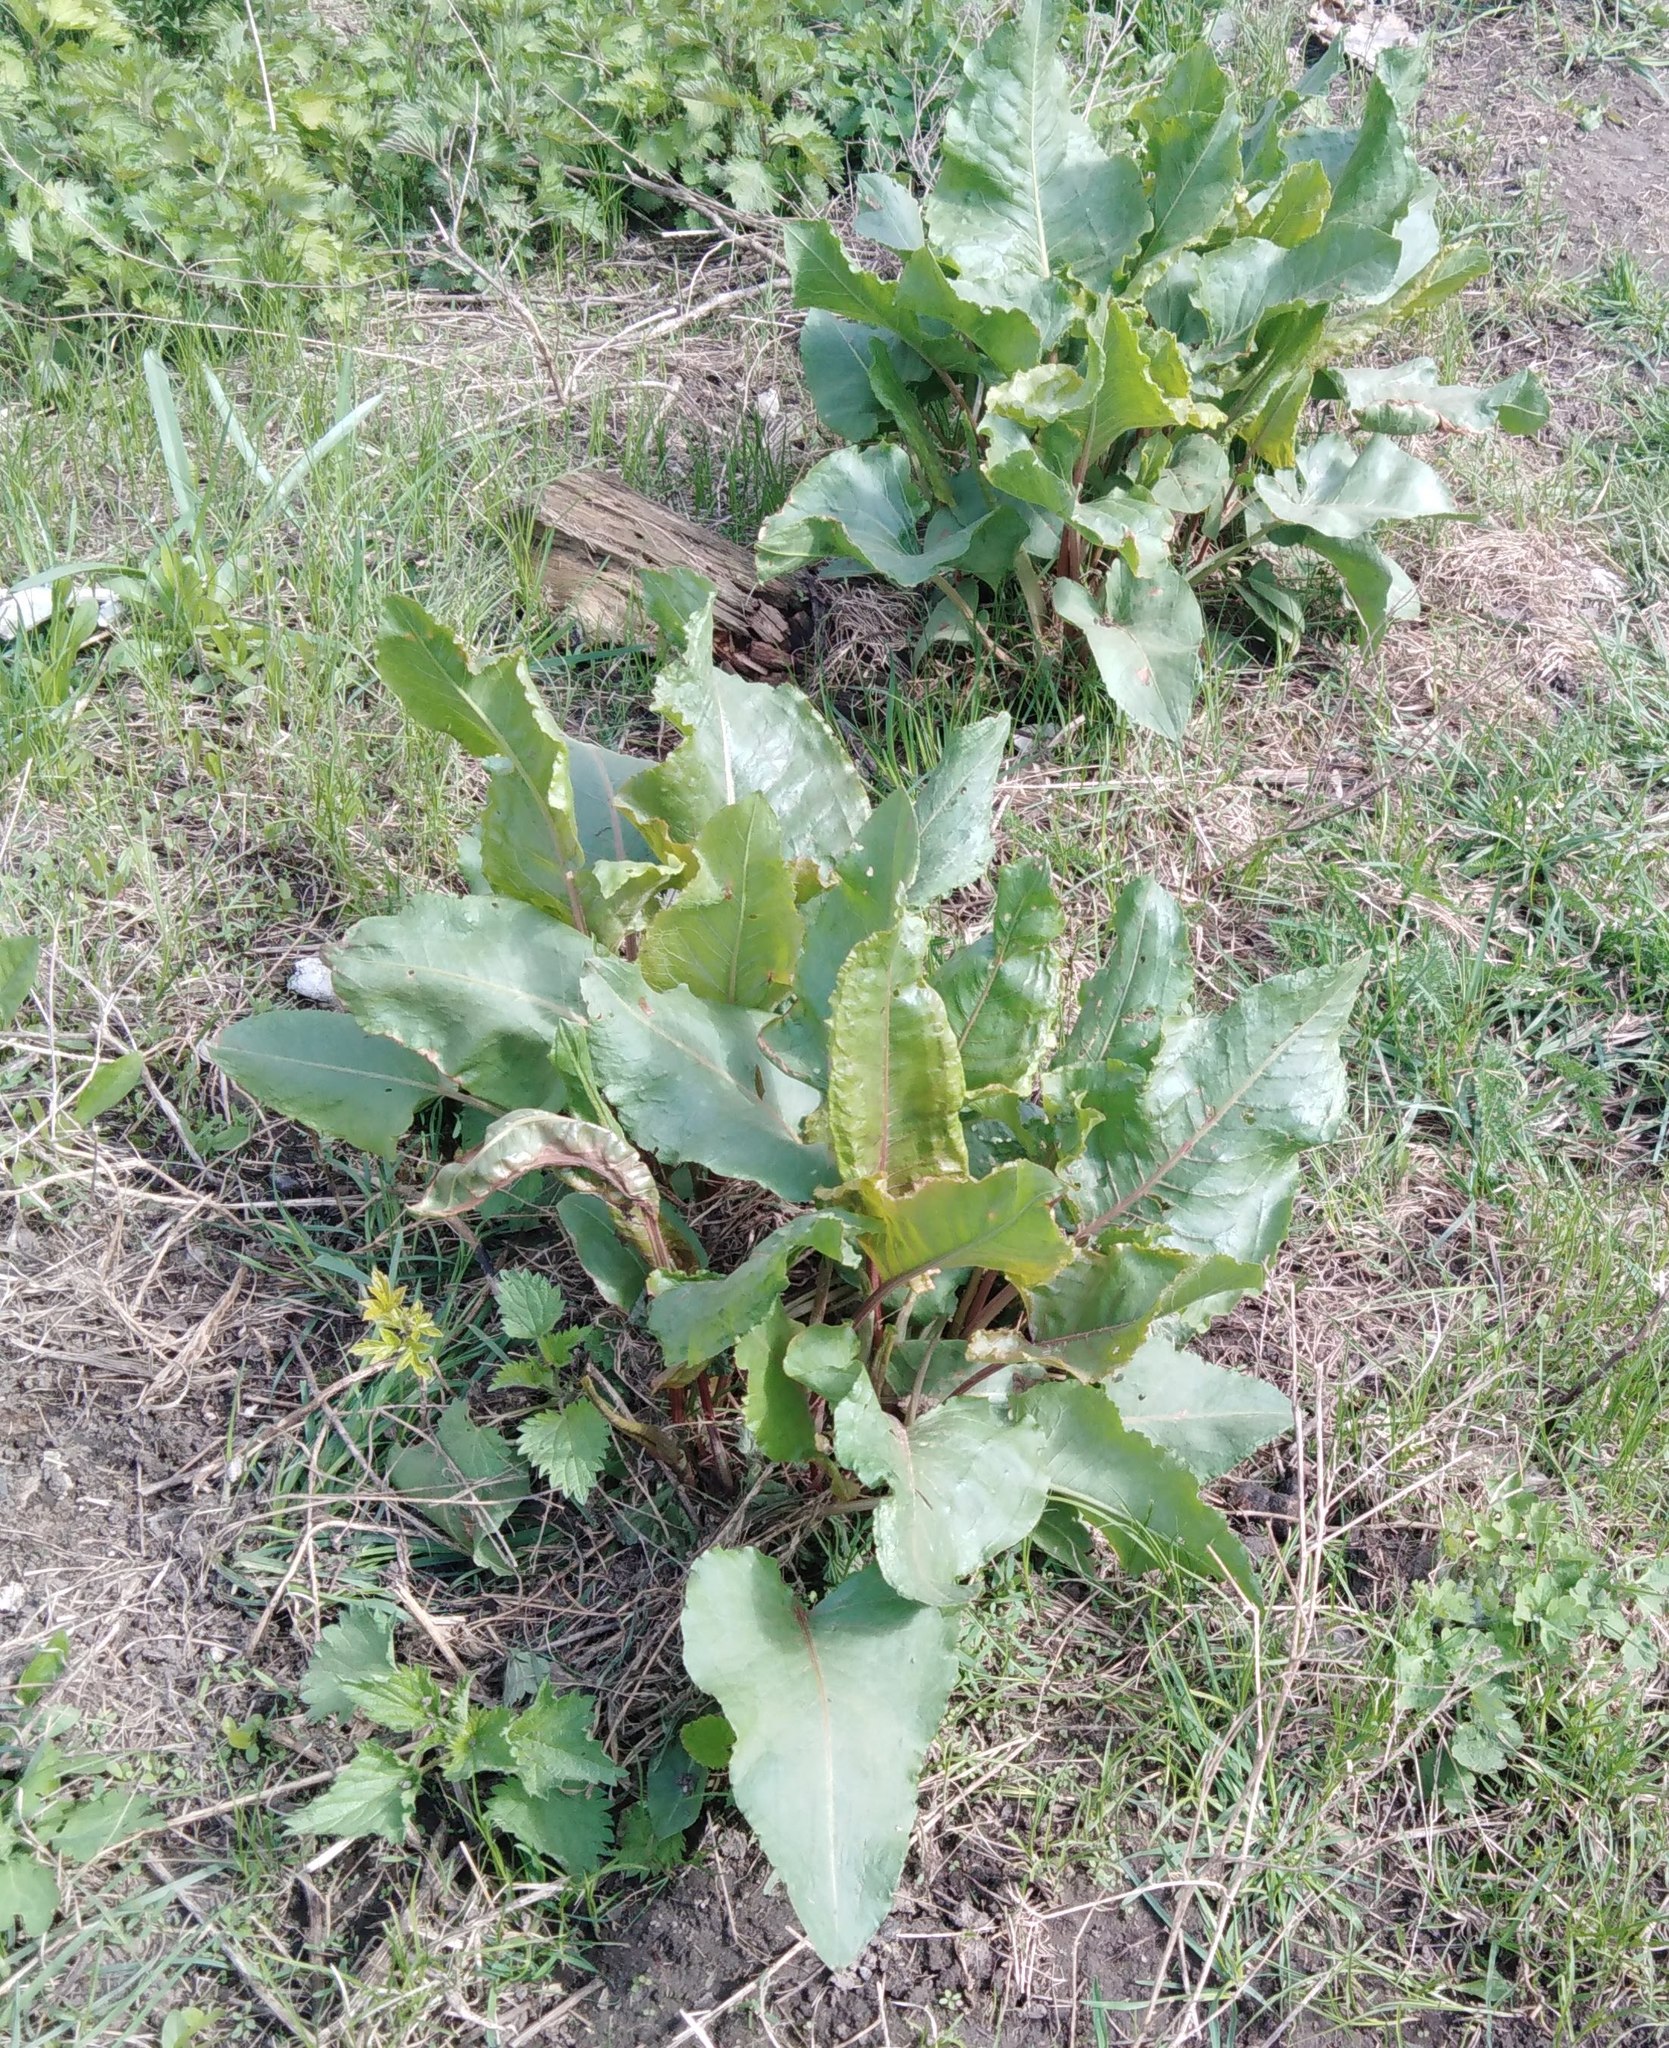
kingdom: Plantae
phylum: Tracheophyta
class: Magnoliopsida
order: Caryophyllales
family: Polygonaceae
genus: Rumex
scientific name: Rumex confertus
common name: Russian dock
